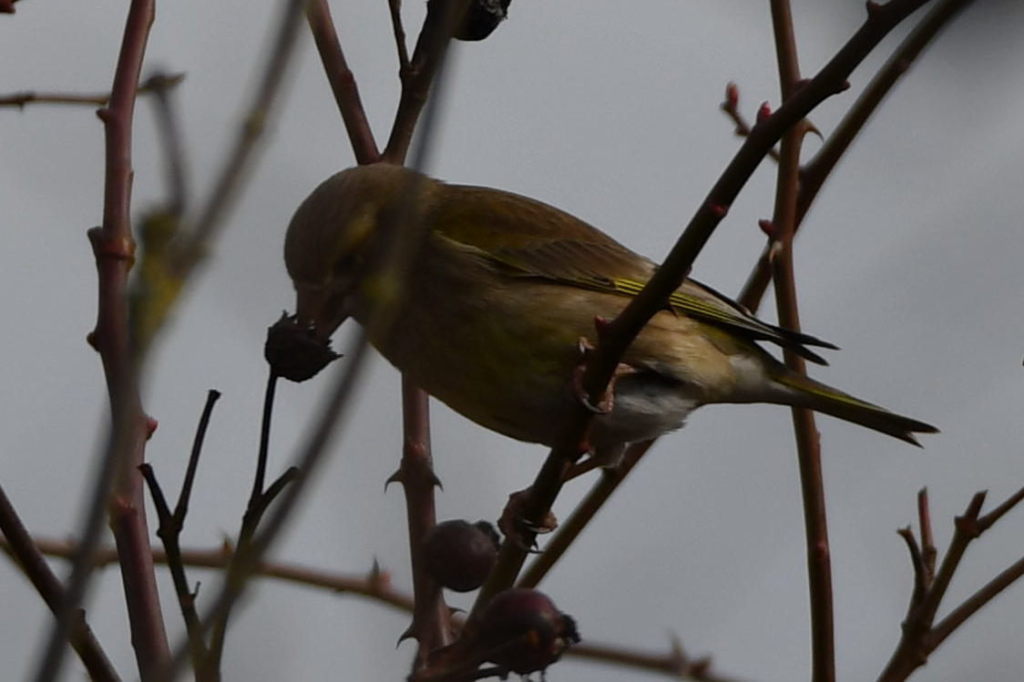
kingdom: Plantae
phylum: Tracheophyta
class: Liliopsida
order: Poales
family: Poaceae
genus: Chloris
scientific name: Chloris chloris
